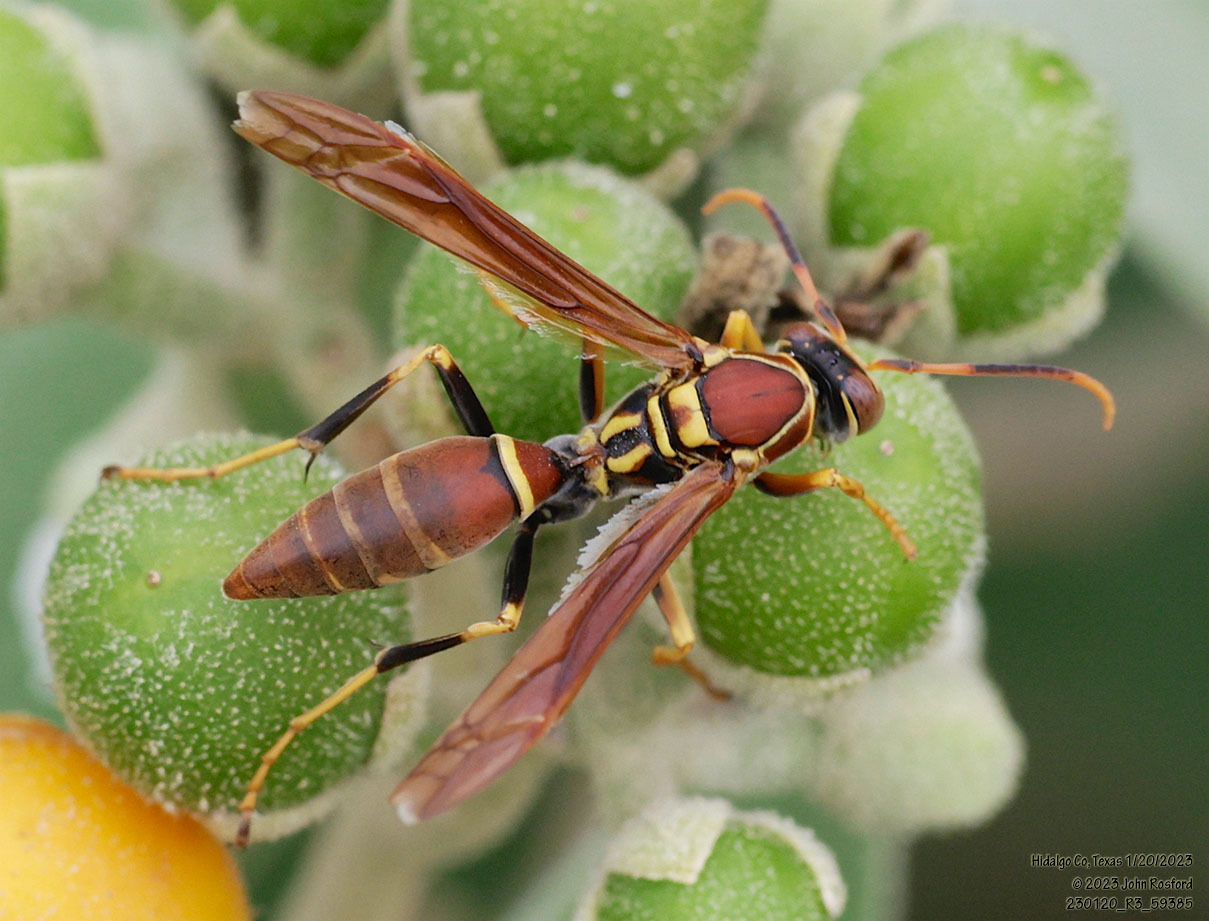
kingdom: Animalia
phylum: Arthropoda
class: Insecta
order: Hymenoptera
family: Eumenidae
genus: Polistes
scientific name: Polistes instabilis
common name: Unstable paper wasp
